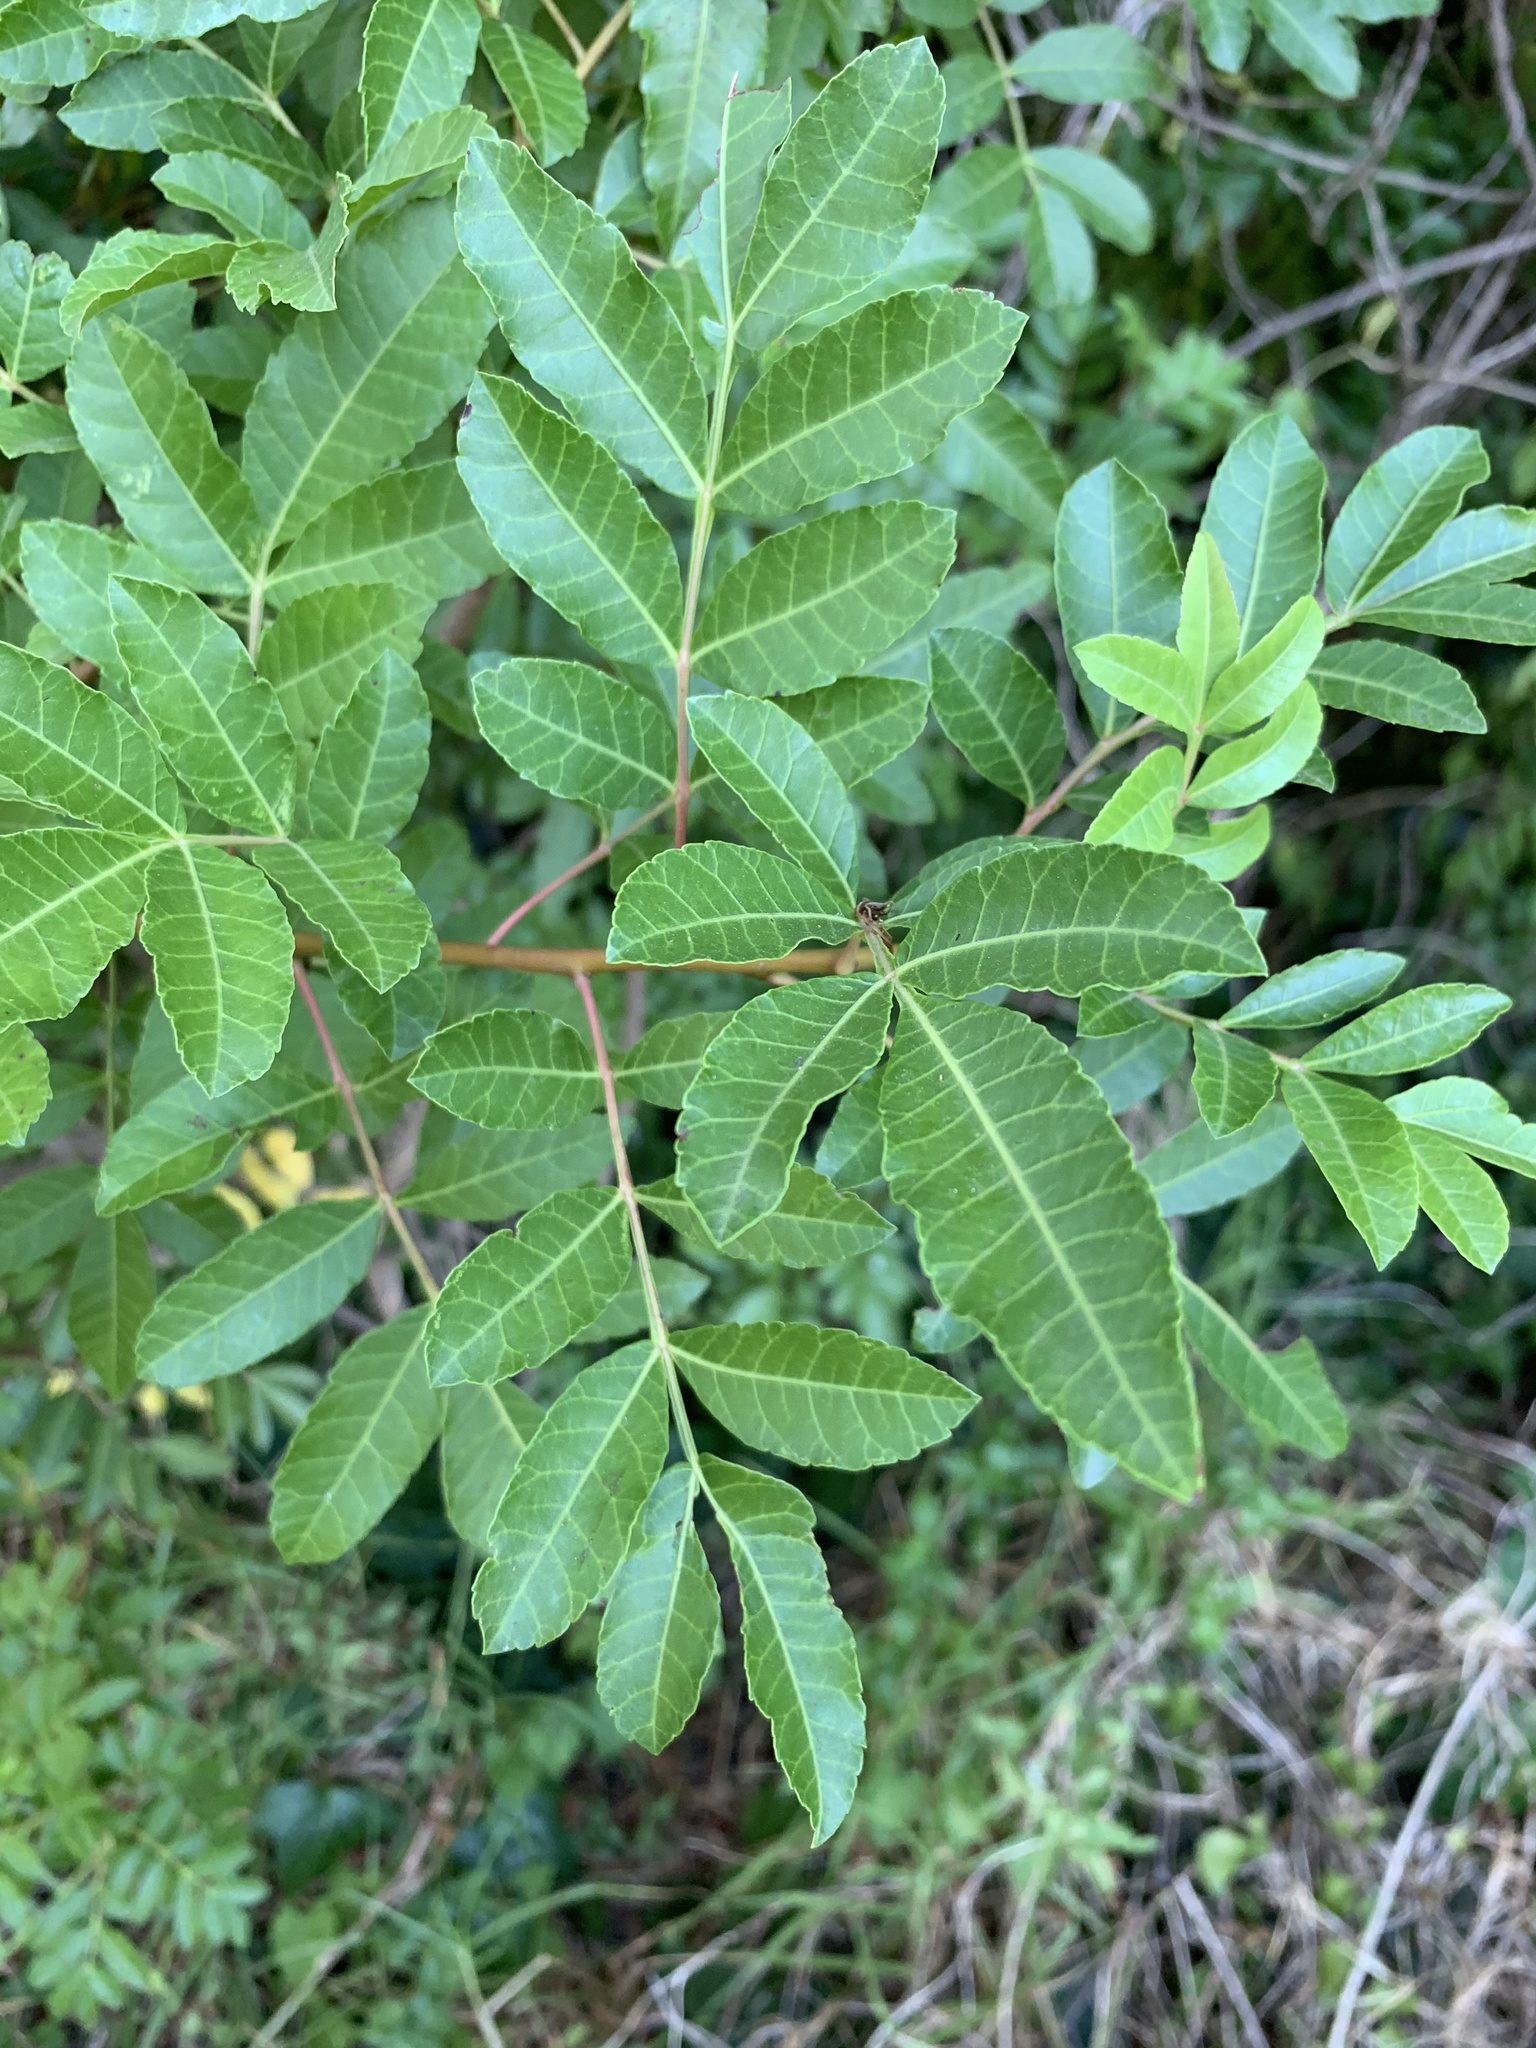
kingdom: Plantae
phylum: Tracheophyta
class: Magnoliopsida
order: Sapindales
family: Anacardiaceae
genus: Schinus
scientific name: Schinus terebinthifolia
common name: Brazilian peppertree
